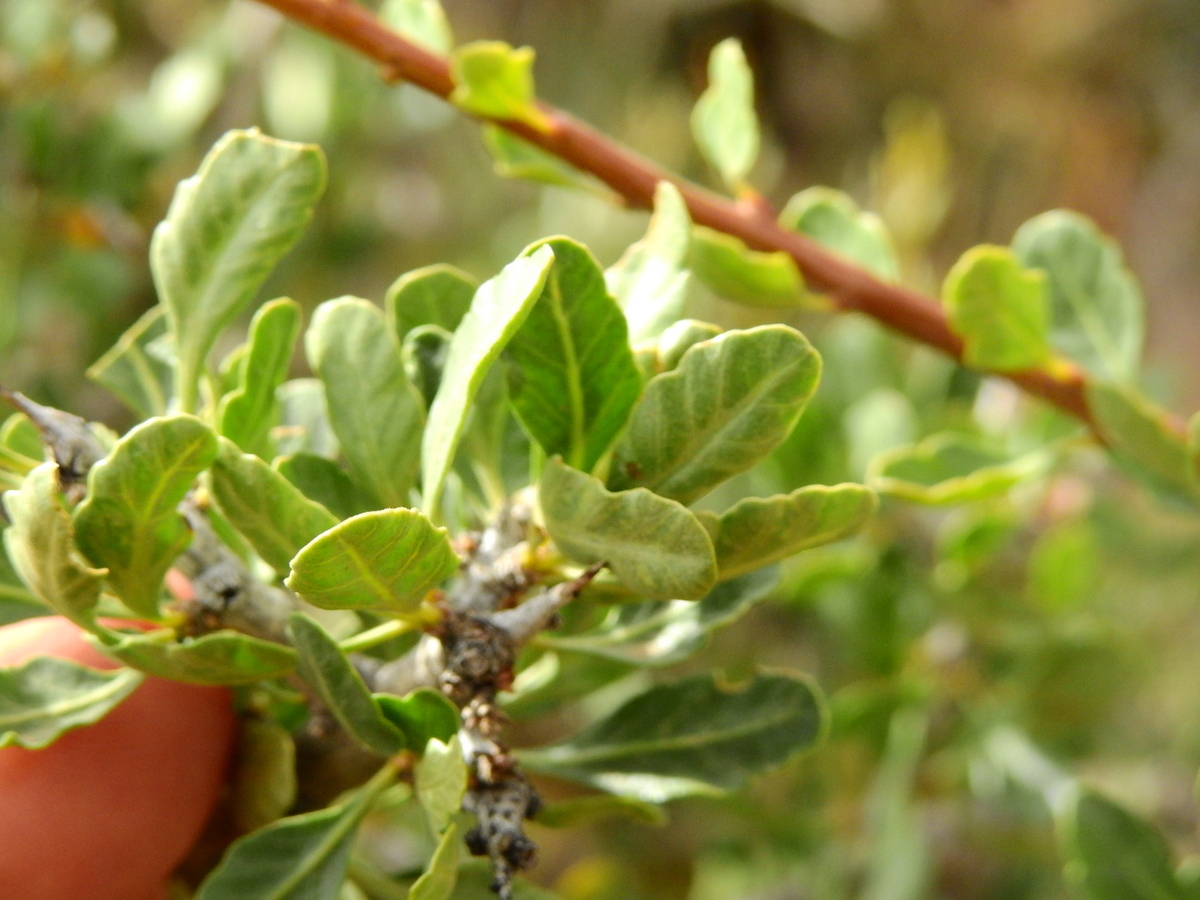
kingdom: Plantae
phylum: Tracheophyta
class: Magnoliopsida
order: Sapindales
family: Anacardiaceae
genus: Schinus
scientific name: Schinus odonellii
